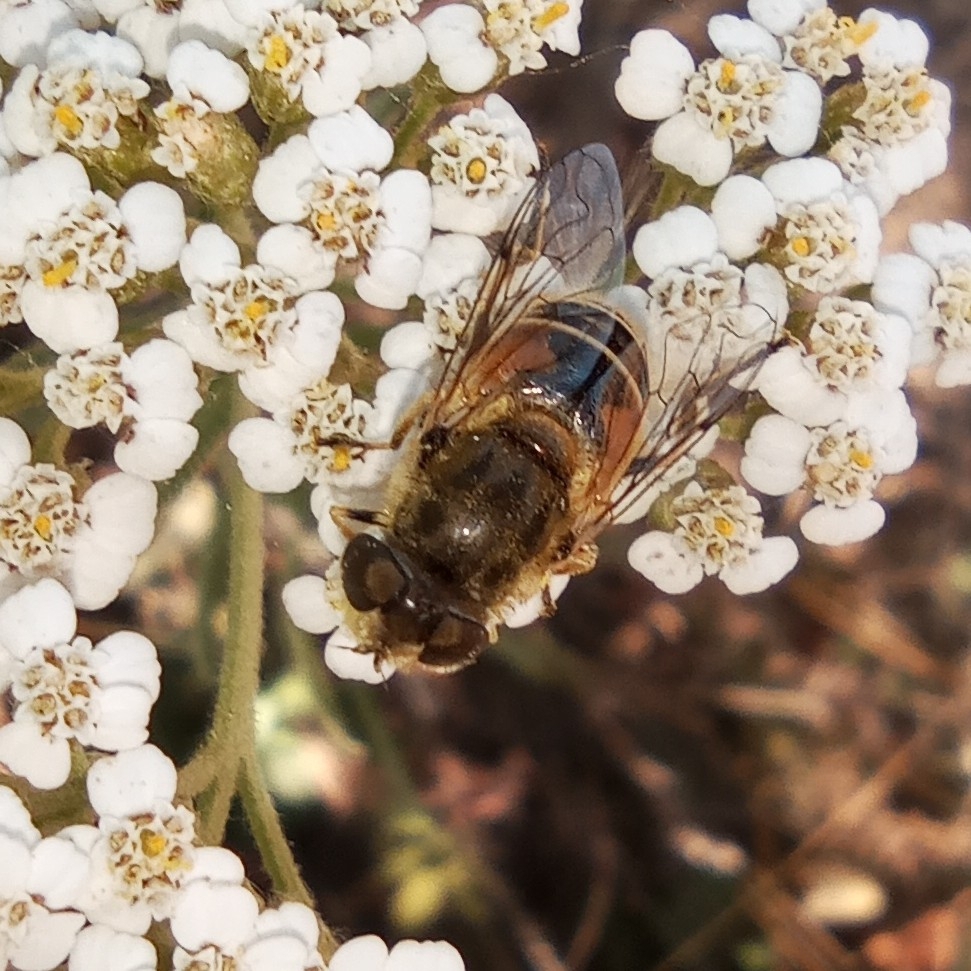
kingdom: Animalia
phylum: Arthropoda
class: Insecta
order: Diptera
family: Syrphidae
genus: Eristalis
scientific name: Eristalis arbustorum
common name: Hover fly
